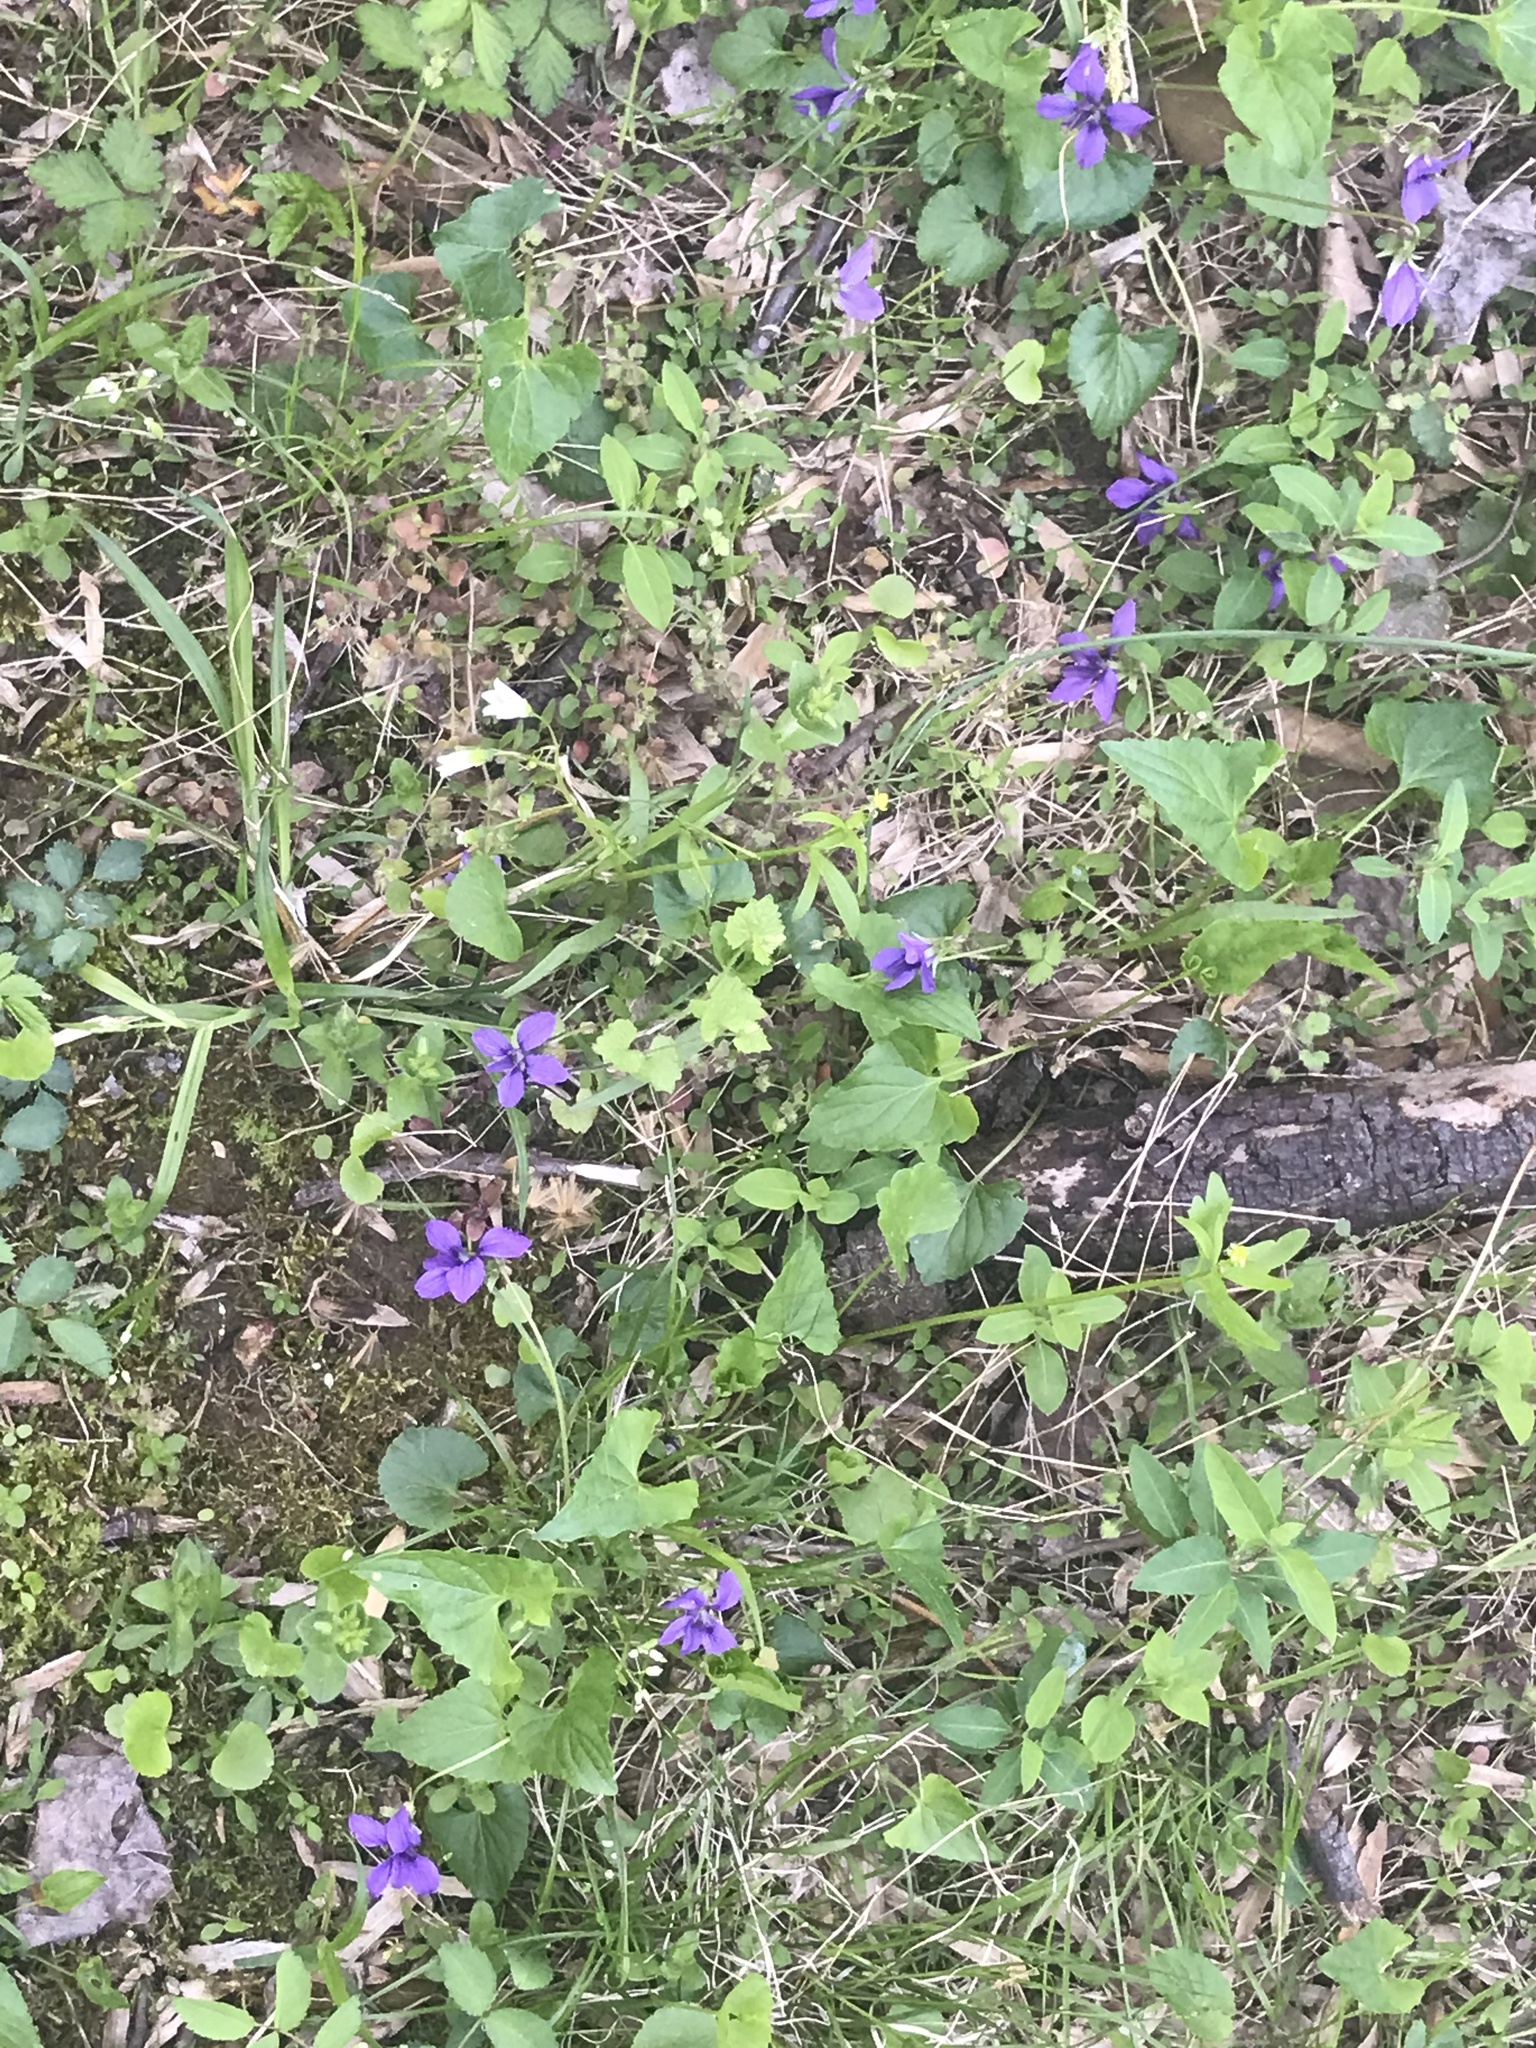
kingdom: Plantae
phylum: Tracheophyta
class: Magnoliopsida
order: Ranunculales
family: Ranunculaceae
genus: Ranunculus
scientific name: Ranunculus abortivus
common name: Early wood buttercup
